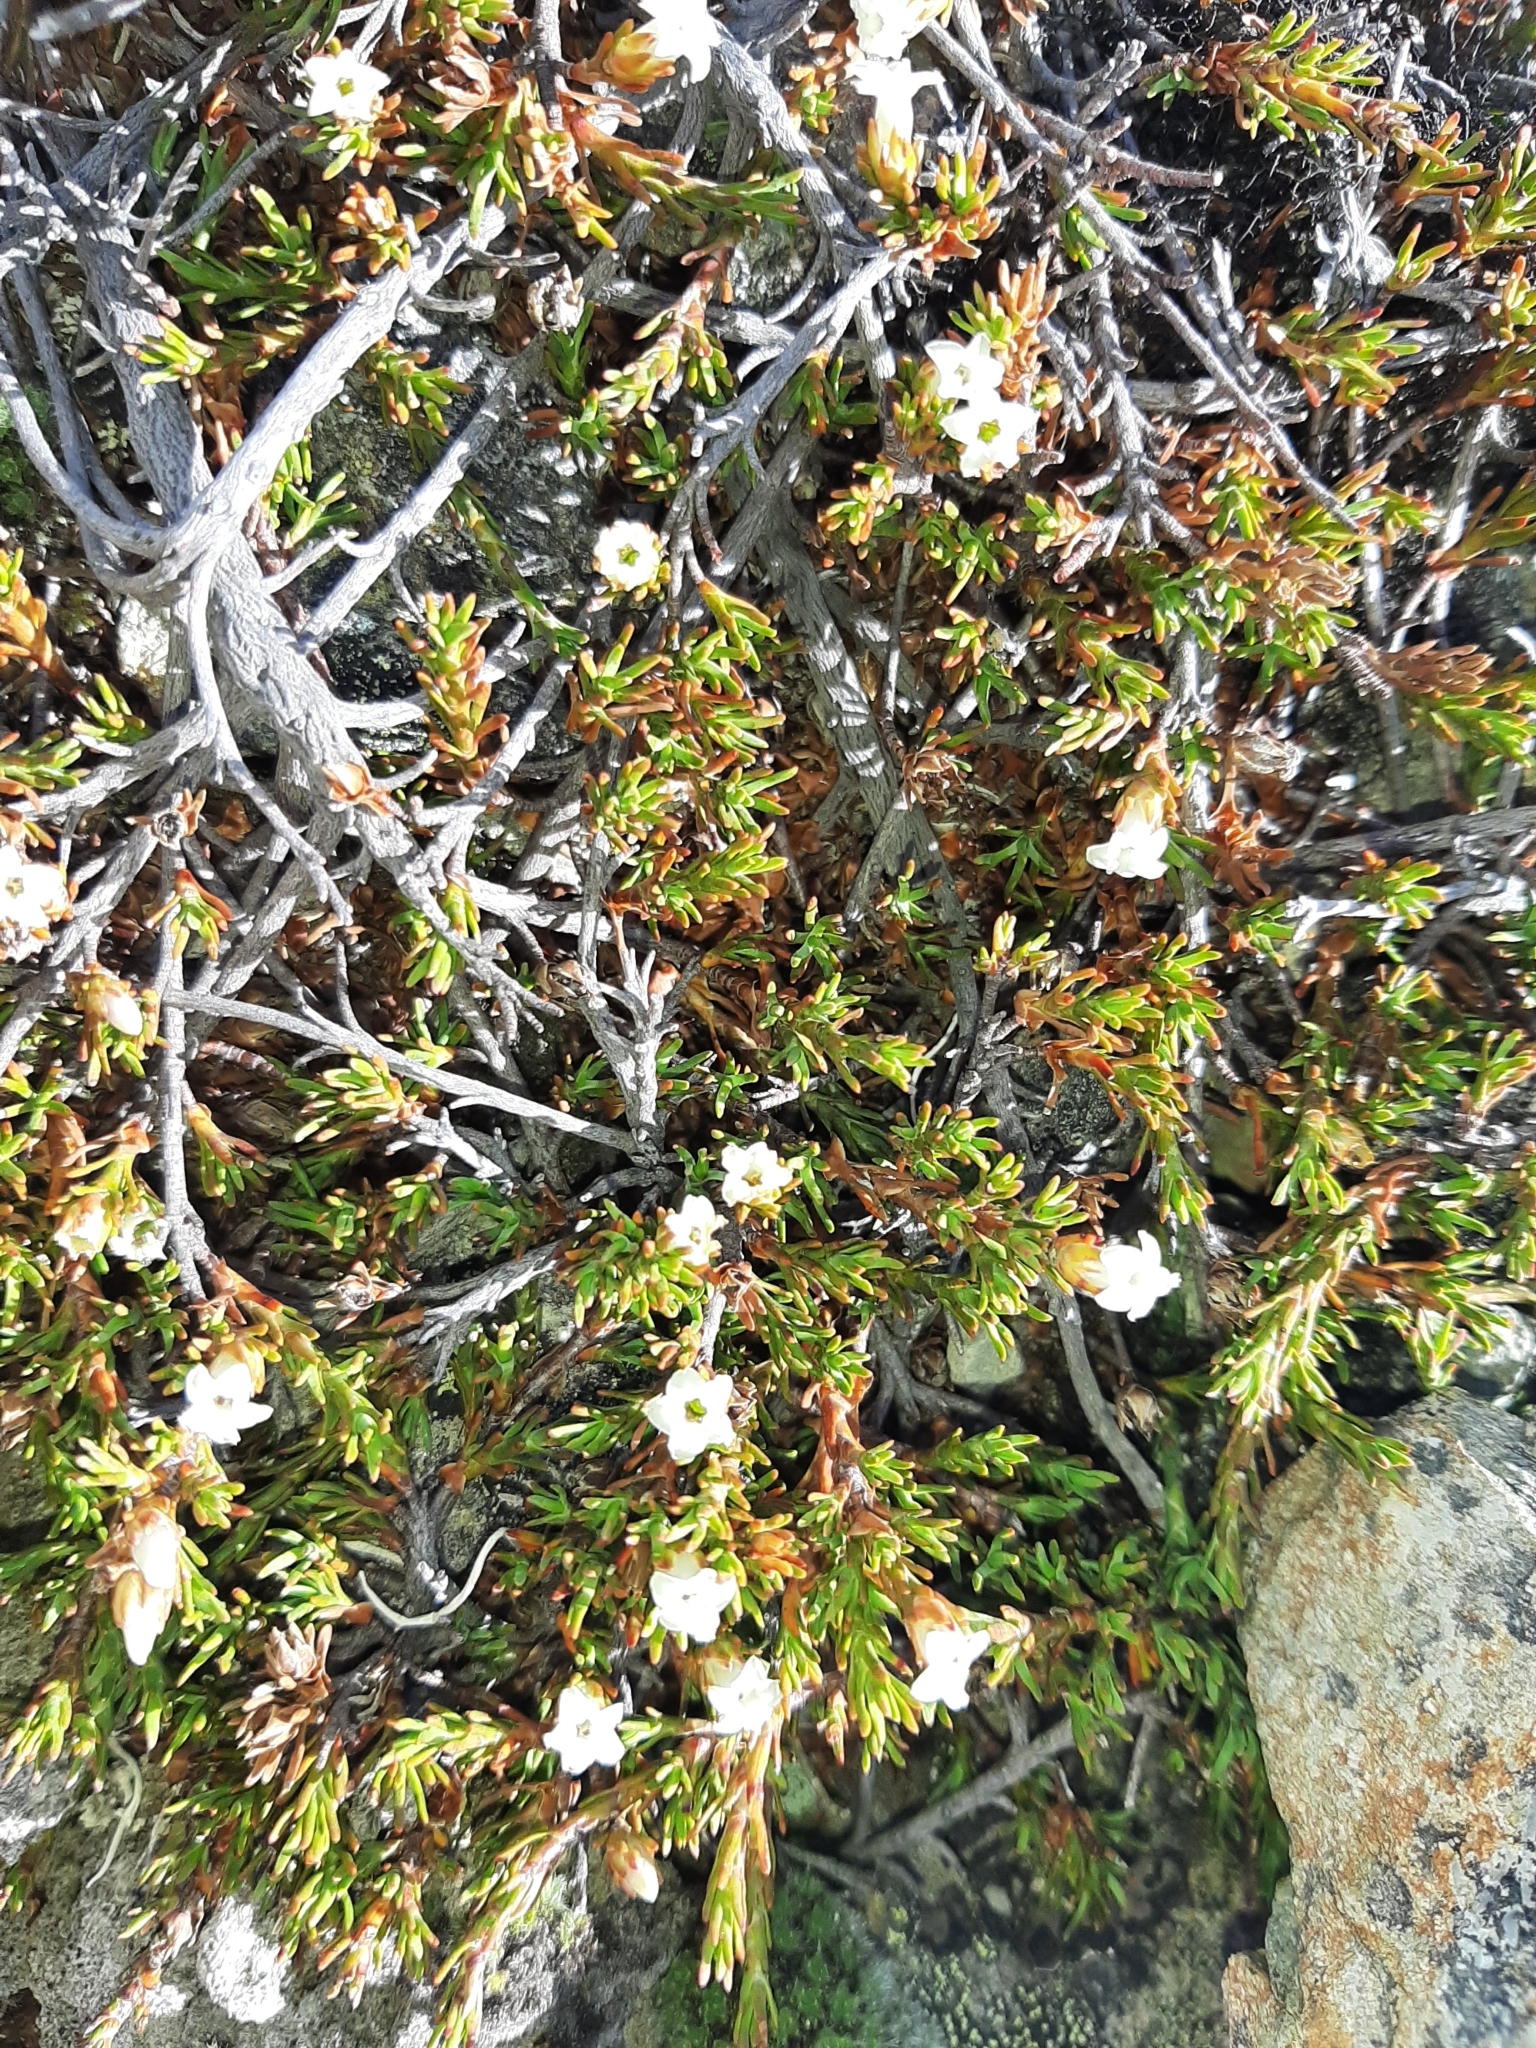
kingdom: Plantae
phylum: Tracheophyta
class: Magnoliopsida
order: Ericales
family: Ericaceae
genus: Dracophyllum
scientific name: Dracophyllum pronum
